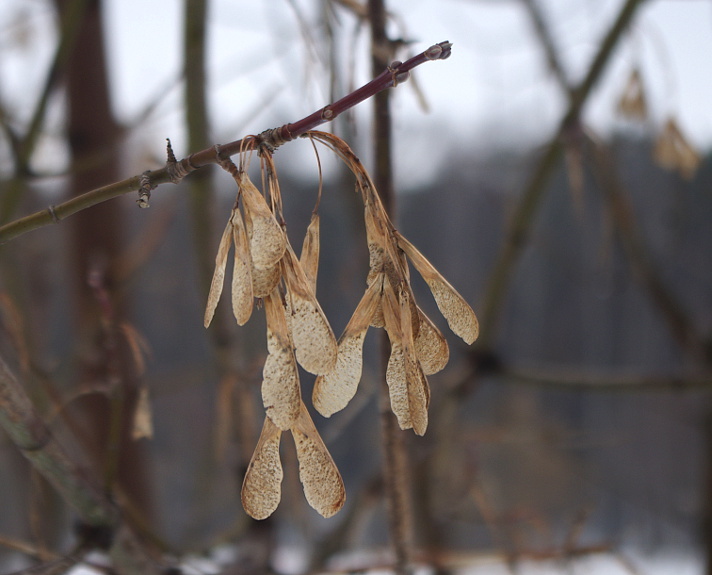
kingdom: Plantae
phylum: Tracheophyta
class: Magnoliopsida
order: Sapindales
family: Sapindaceae
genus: Acer
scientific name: Acer negundo
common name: Ashleaf maple
